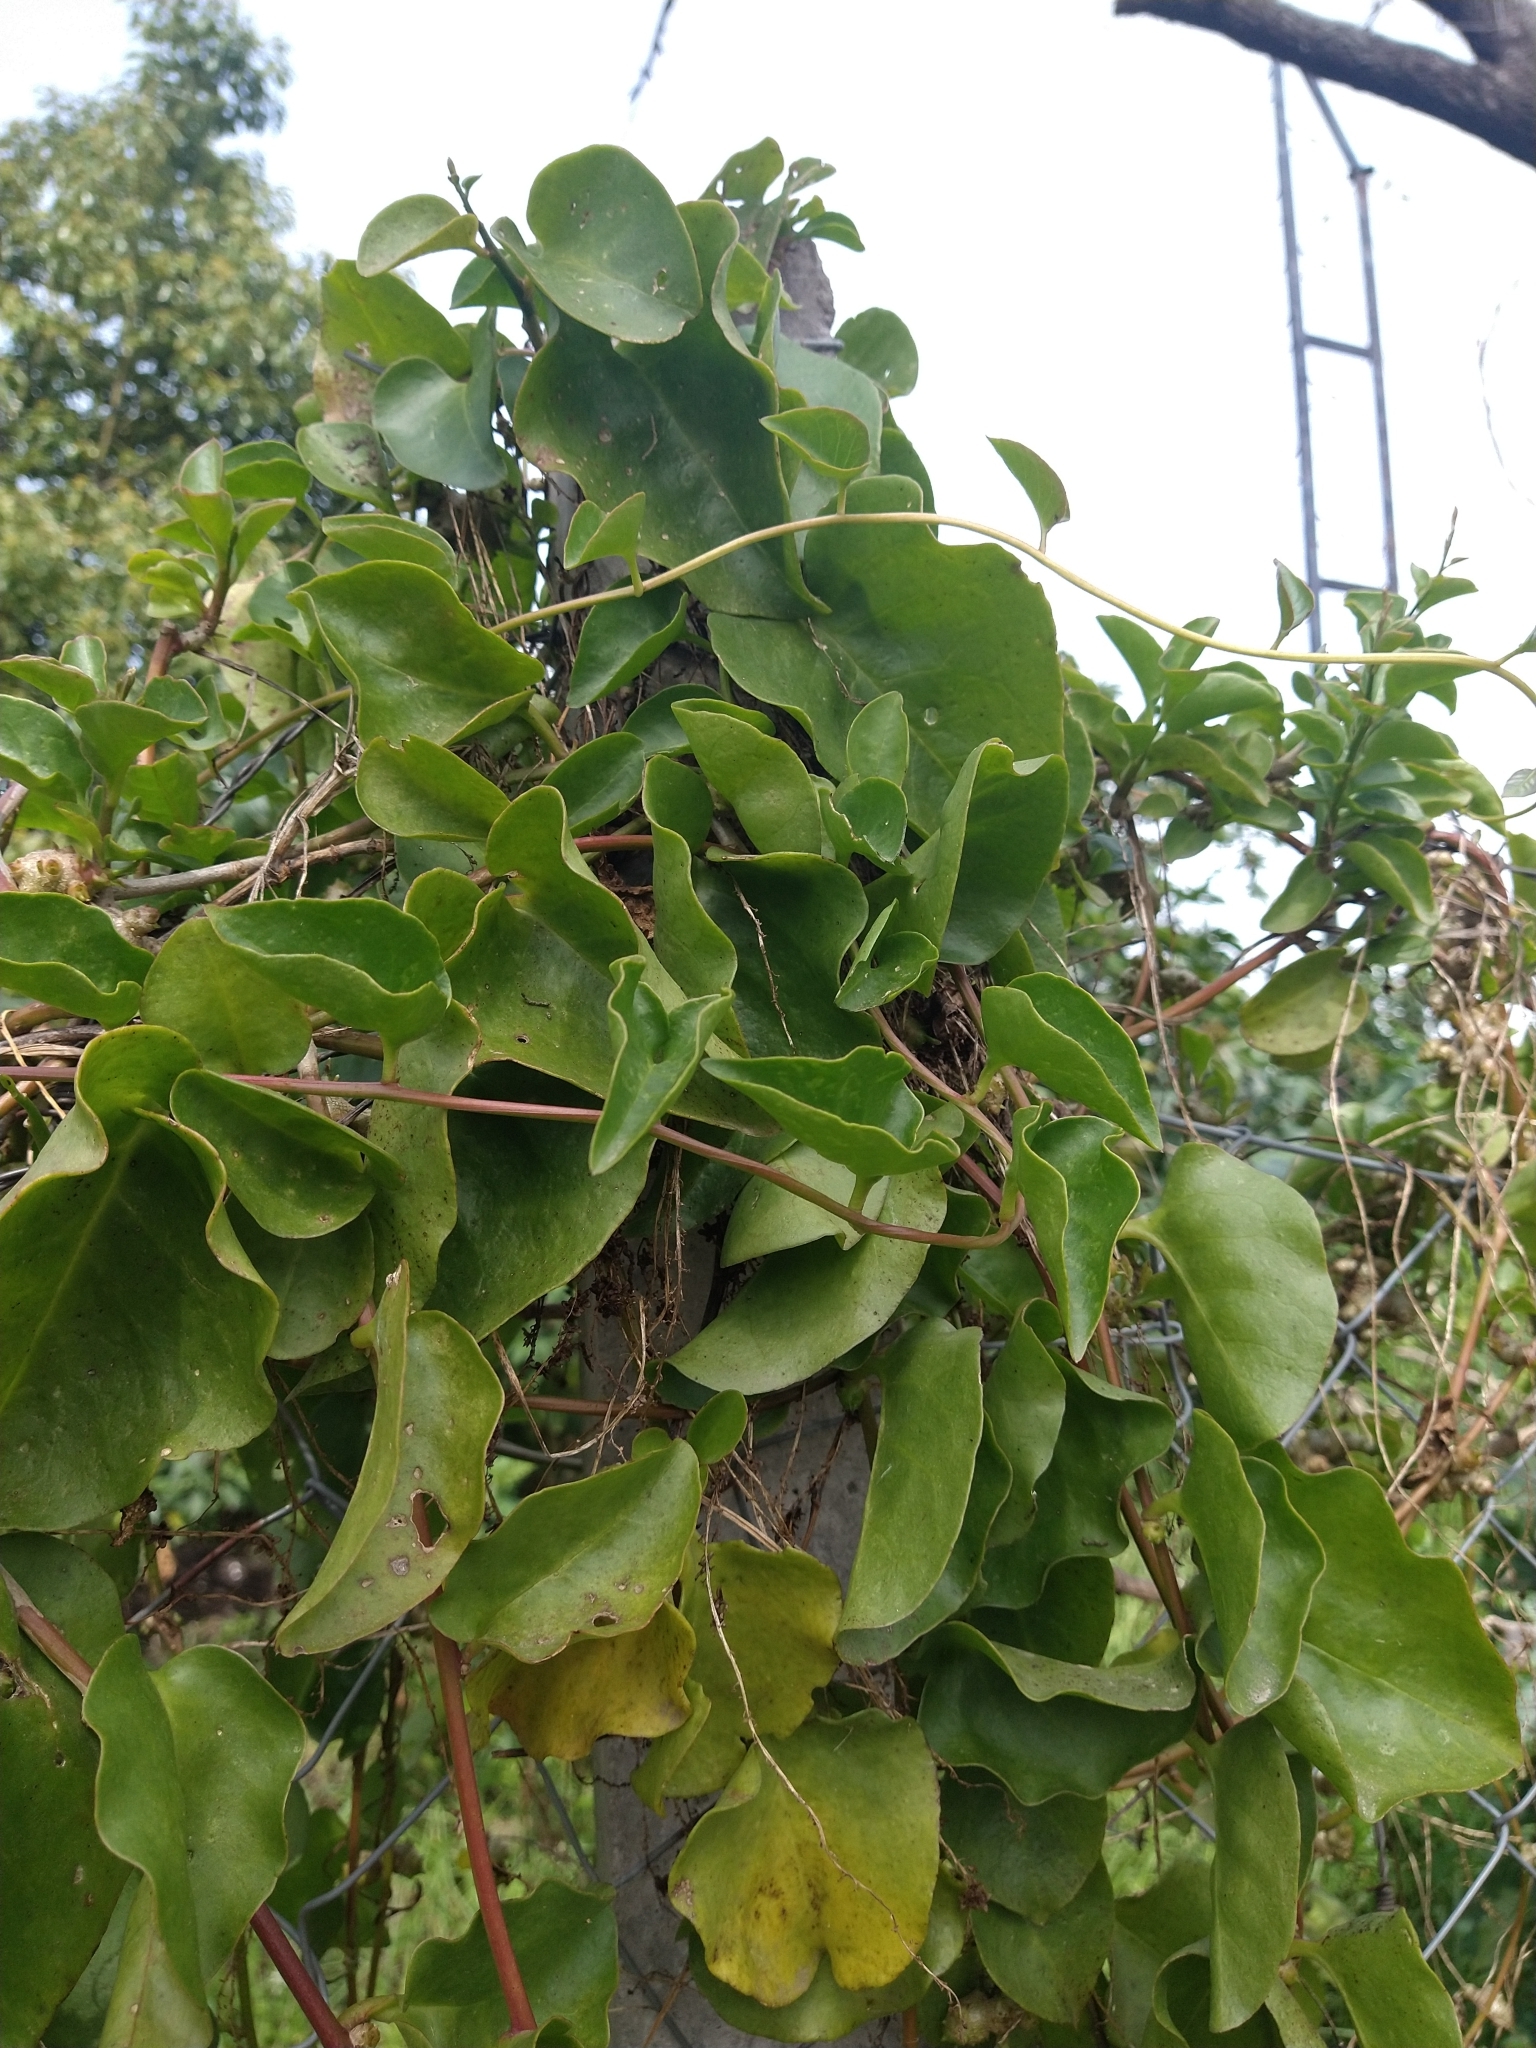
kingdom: Plantae
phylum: Tracheophyta
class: Magnoliopsida
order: Caryophyllales
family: Basellaceae
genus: Anredera
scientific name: Anredera cordifolia
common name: Heartleaf madeiravine
